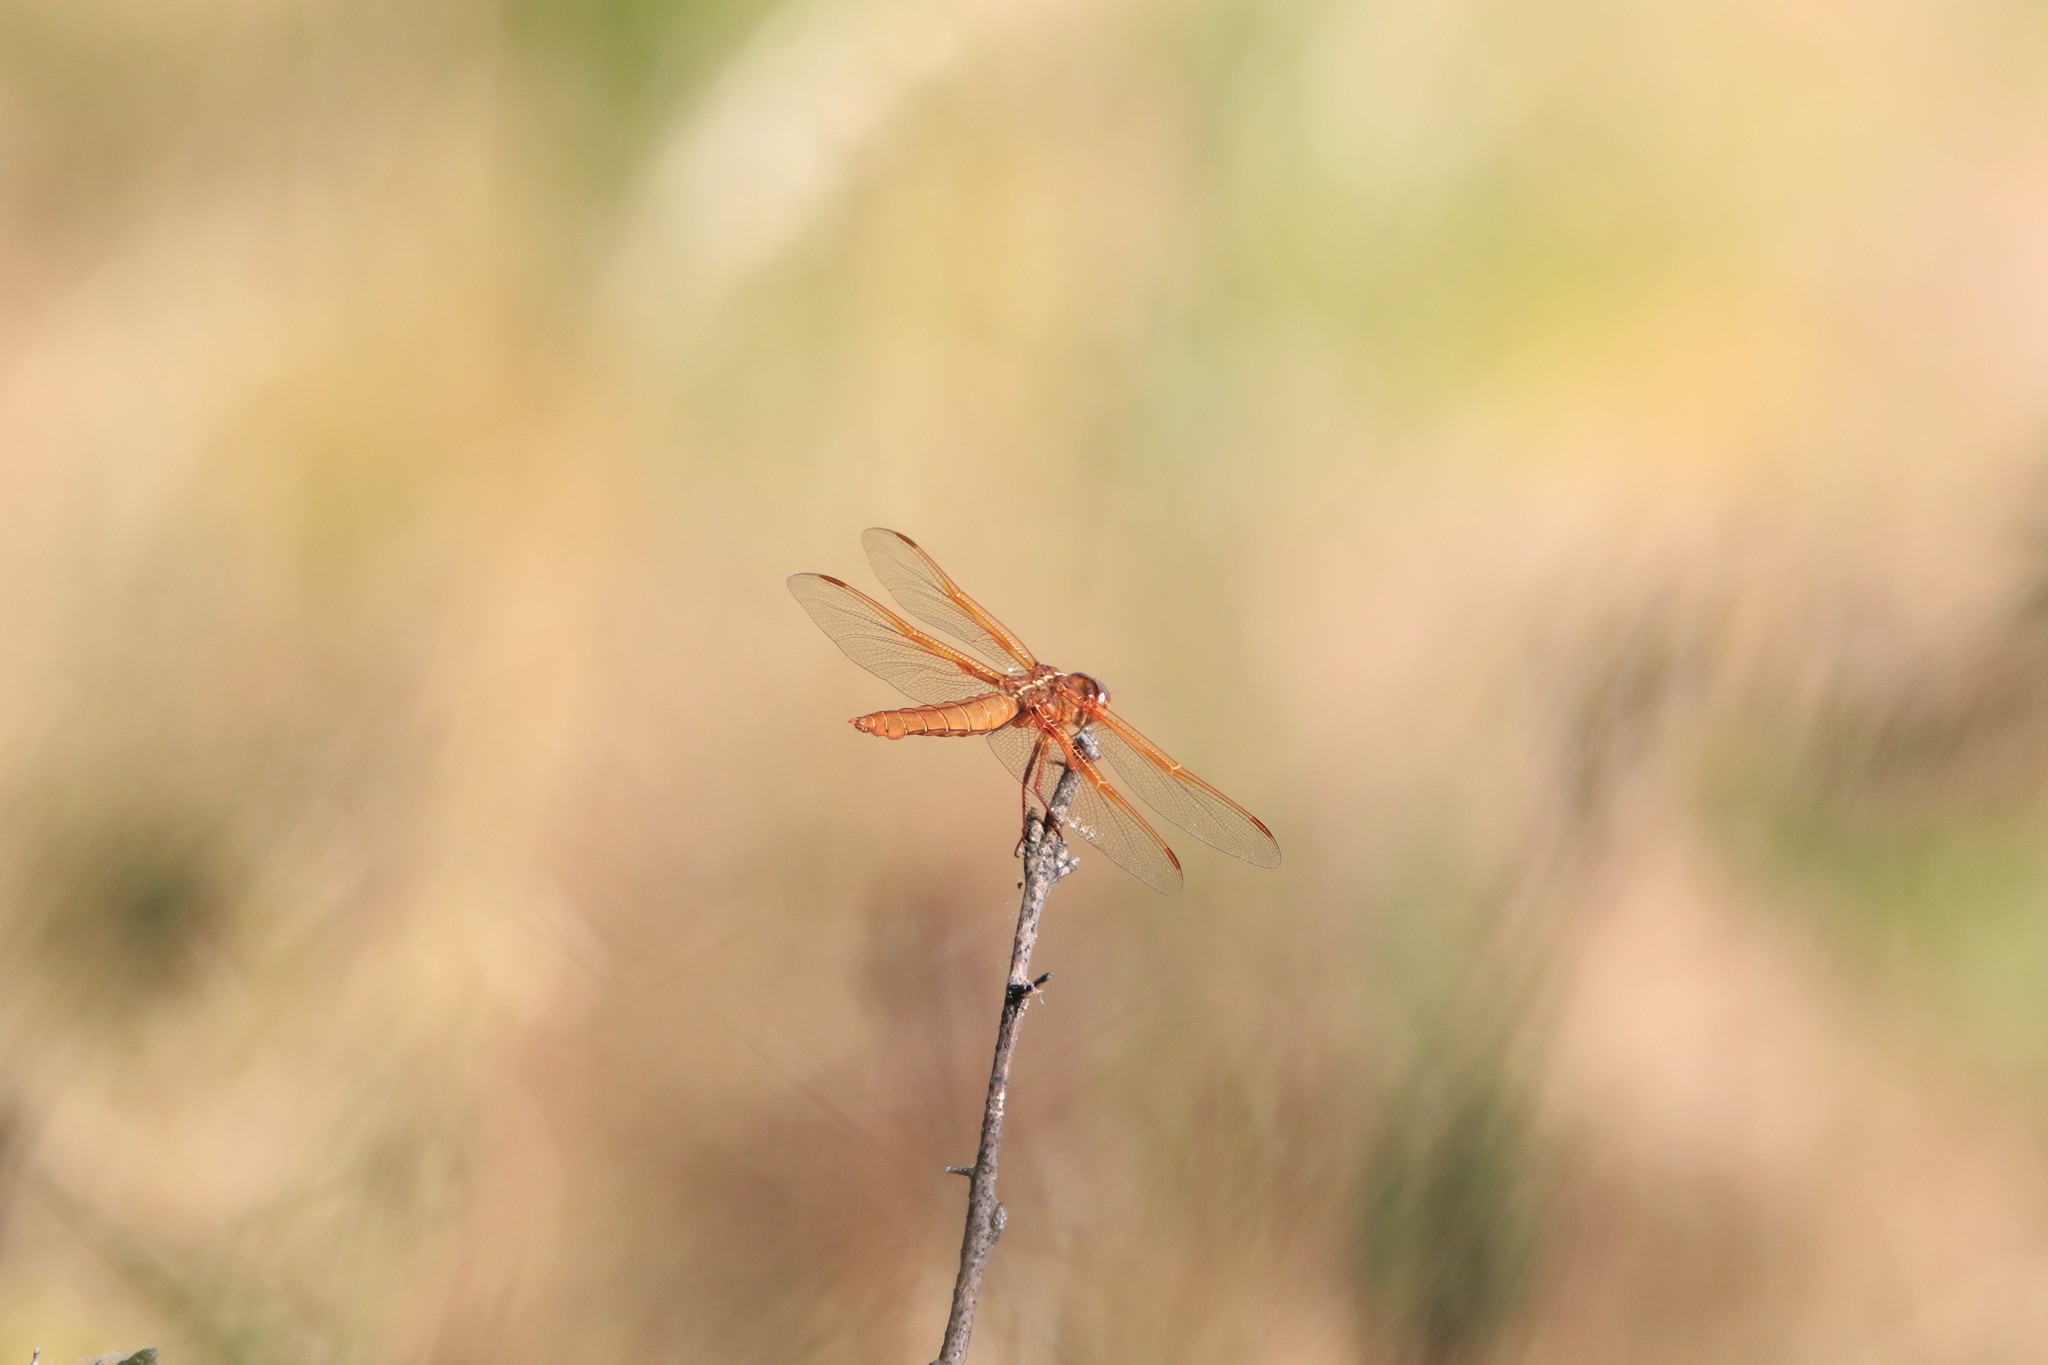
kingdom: Animalia
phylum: Arthropoda
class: Insecta
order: Odonata
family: Libellulidae
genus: Libellula
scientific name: Libellula saturata
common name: Flame skimmer
